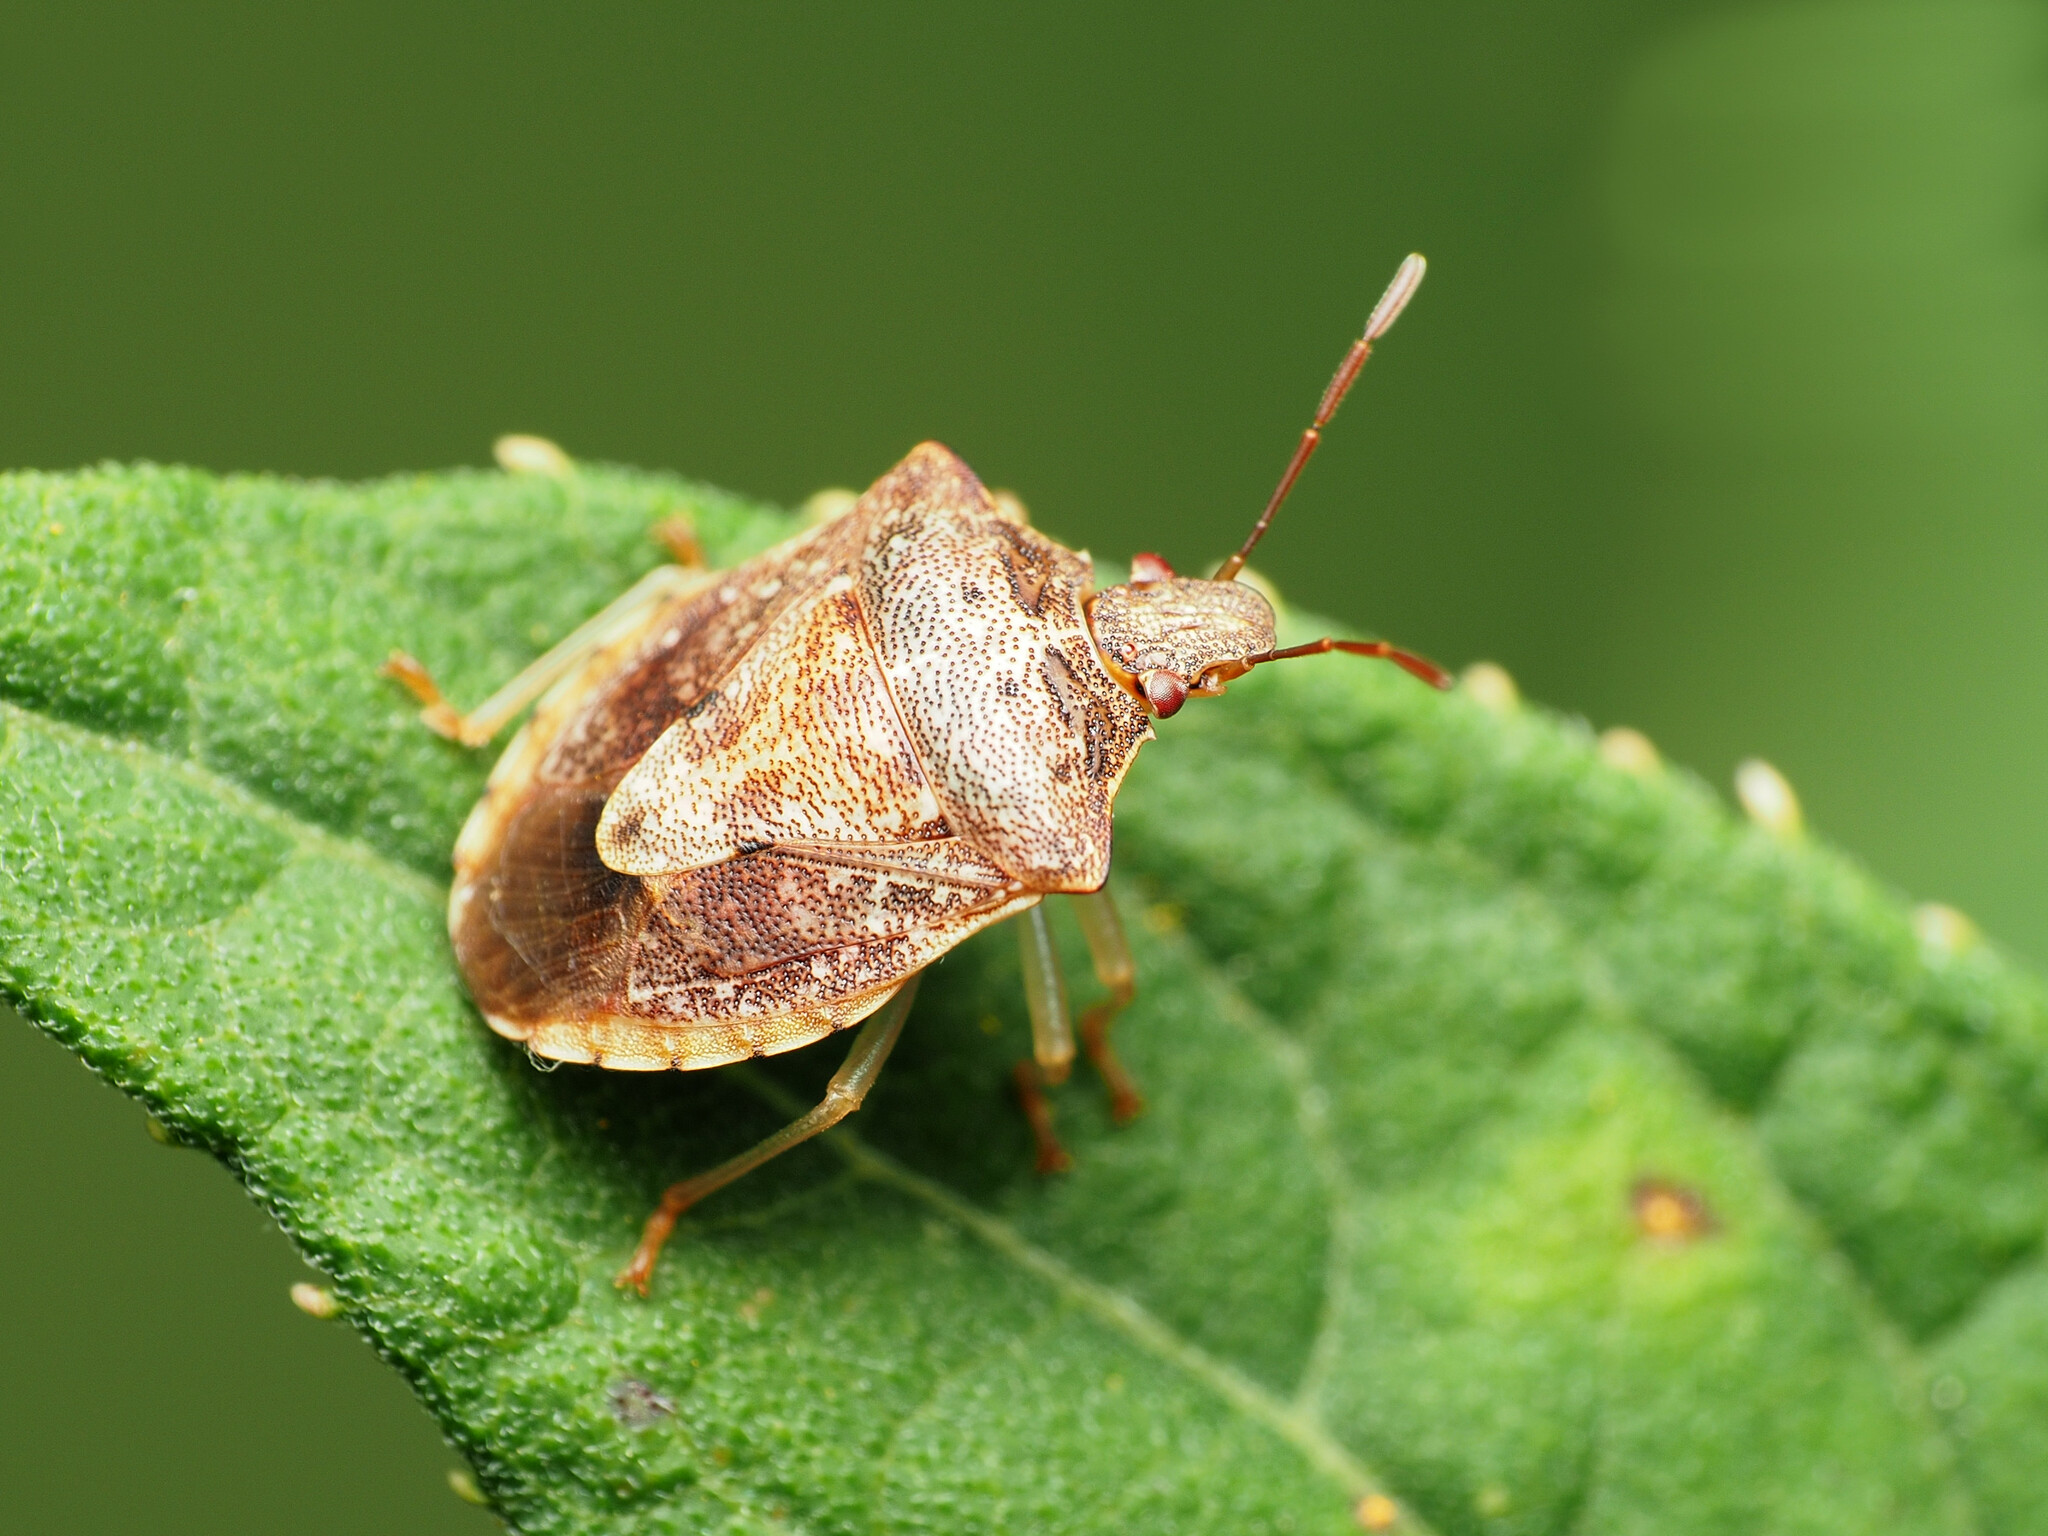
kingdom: Animalia
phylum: Arthropoda
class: Insecta
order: Hemiptera
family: Pentatomidae
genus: Dendrocoris
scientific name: Dendrocoris humeralis
